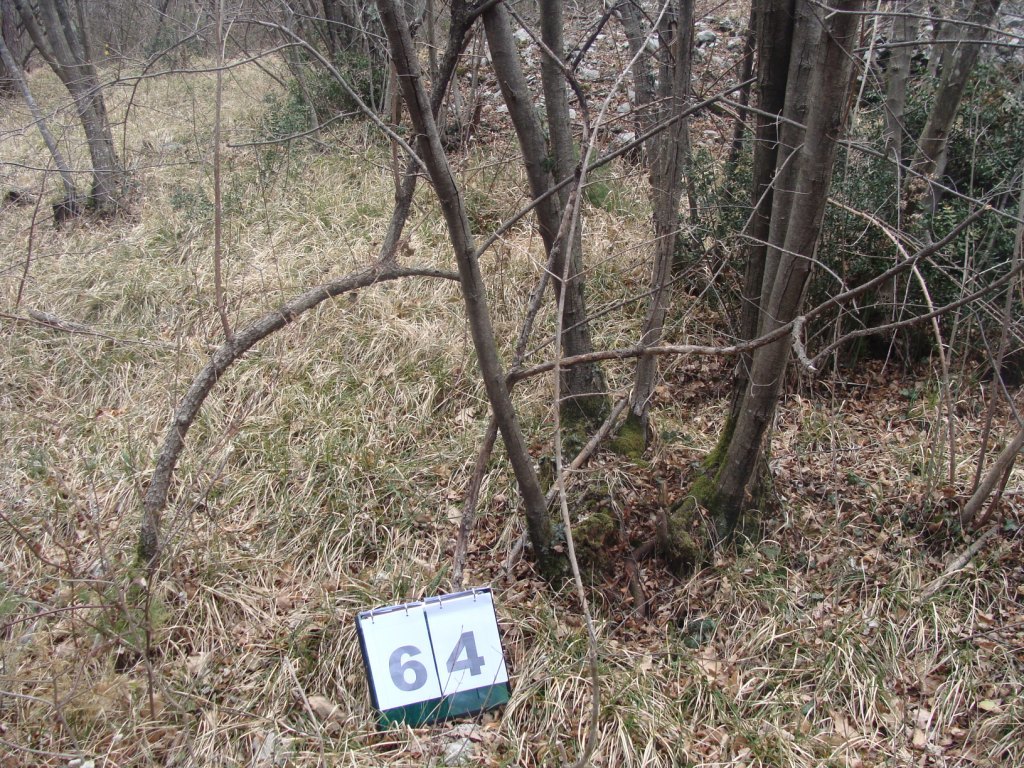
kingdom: Plantae
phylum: Tracheophyta
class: Magnoliopsida
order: Cornales
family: Cornaceae
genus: Cornus
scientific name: Cornus mas
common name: Cornelian-cherry
